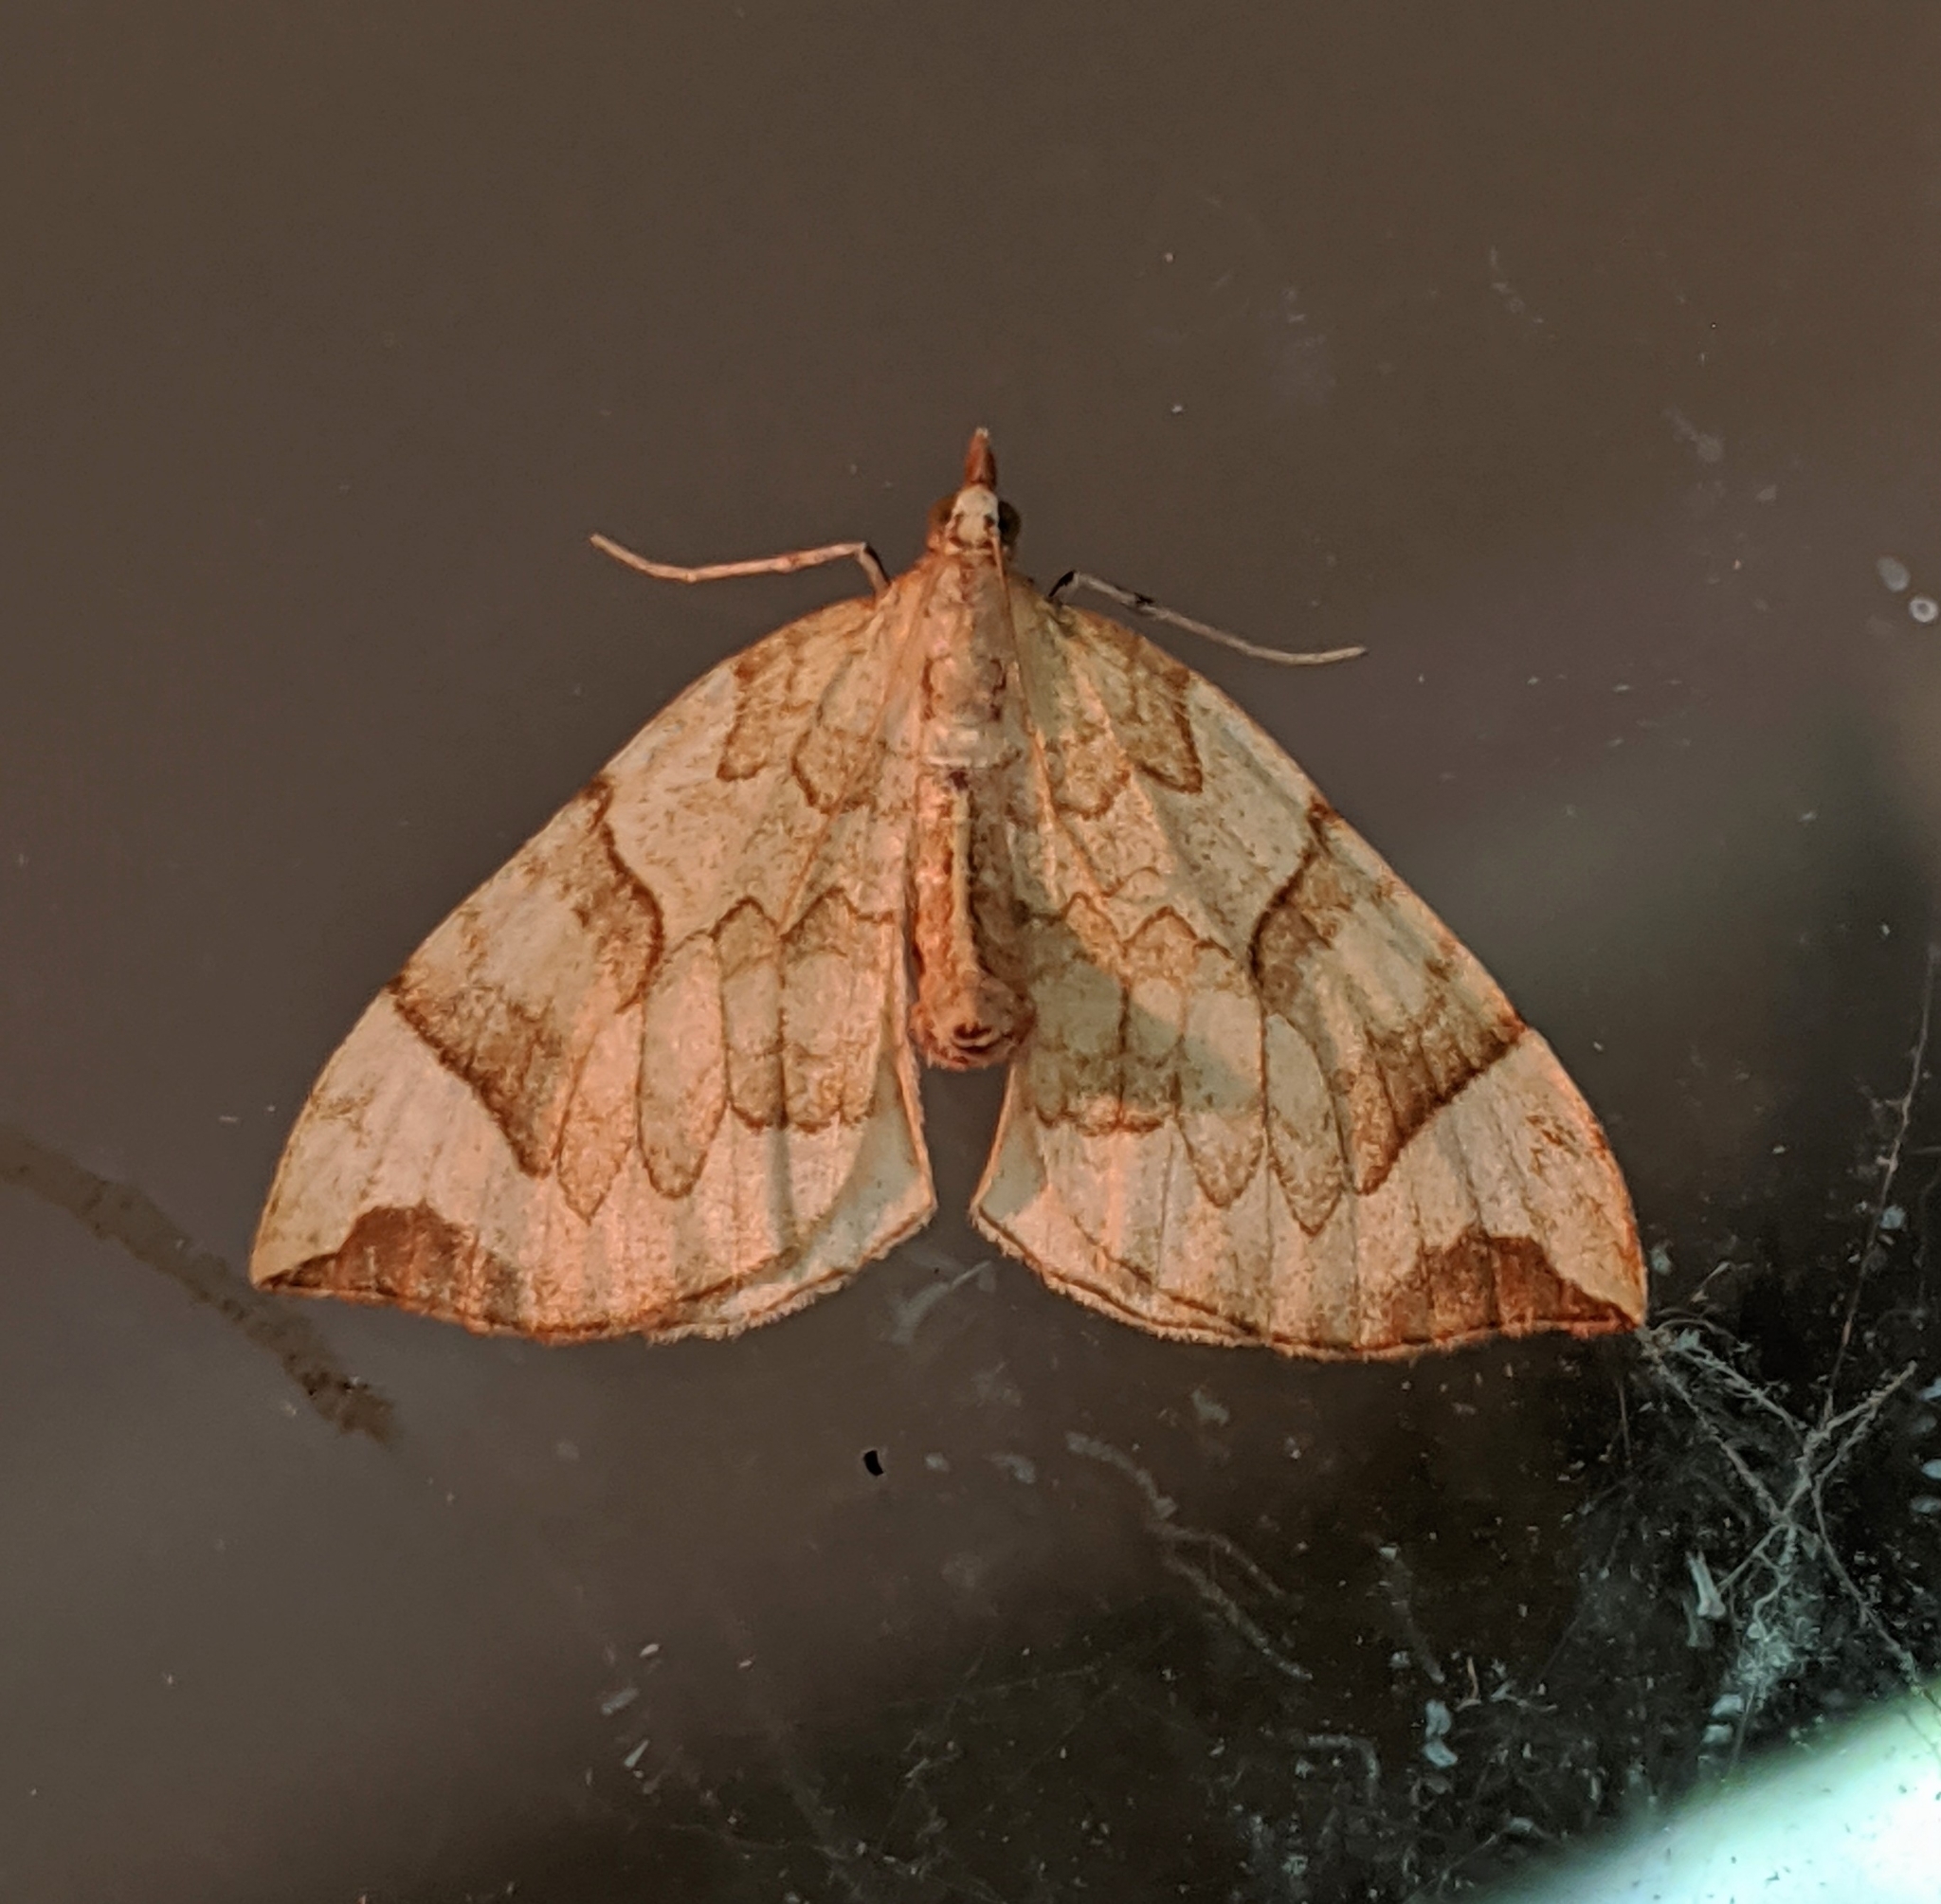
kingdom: Animalia
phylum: Arthropoda
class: Insecta
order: Lepidoptera
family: Geometridae
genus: Eulithis
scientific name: Eulithis propulsata
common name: Currant eulithis moth
